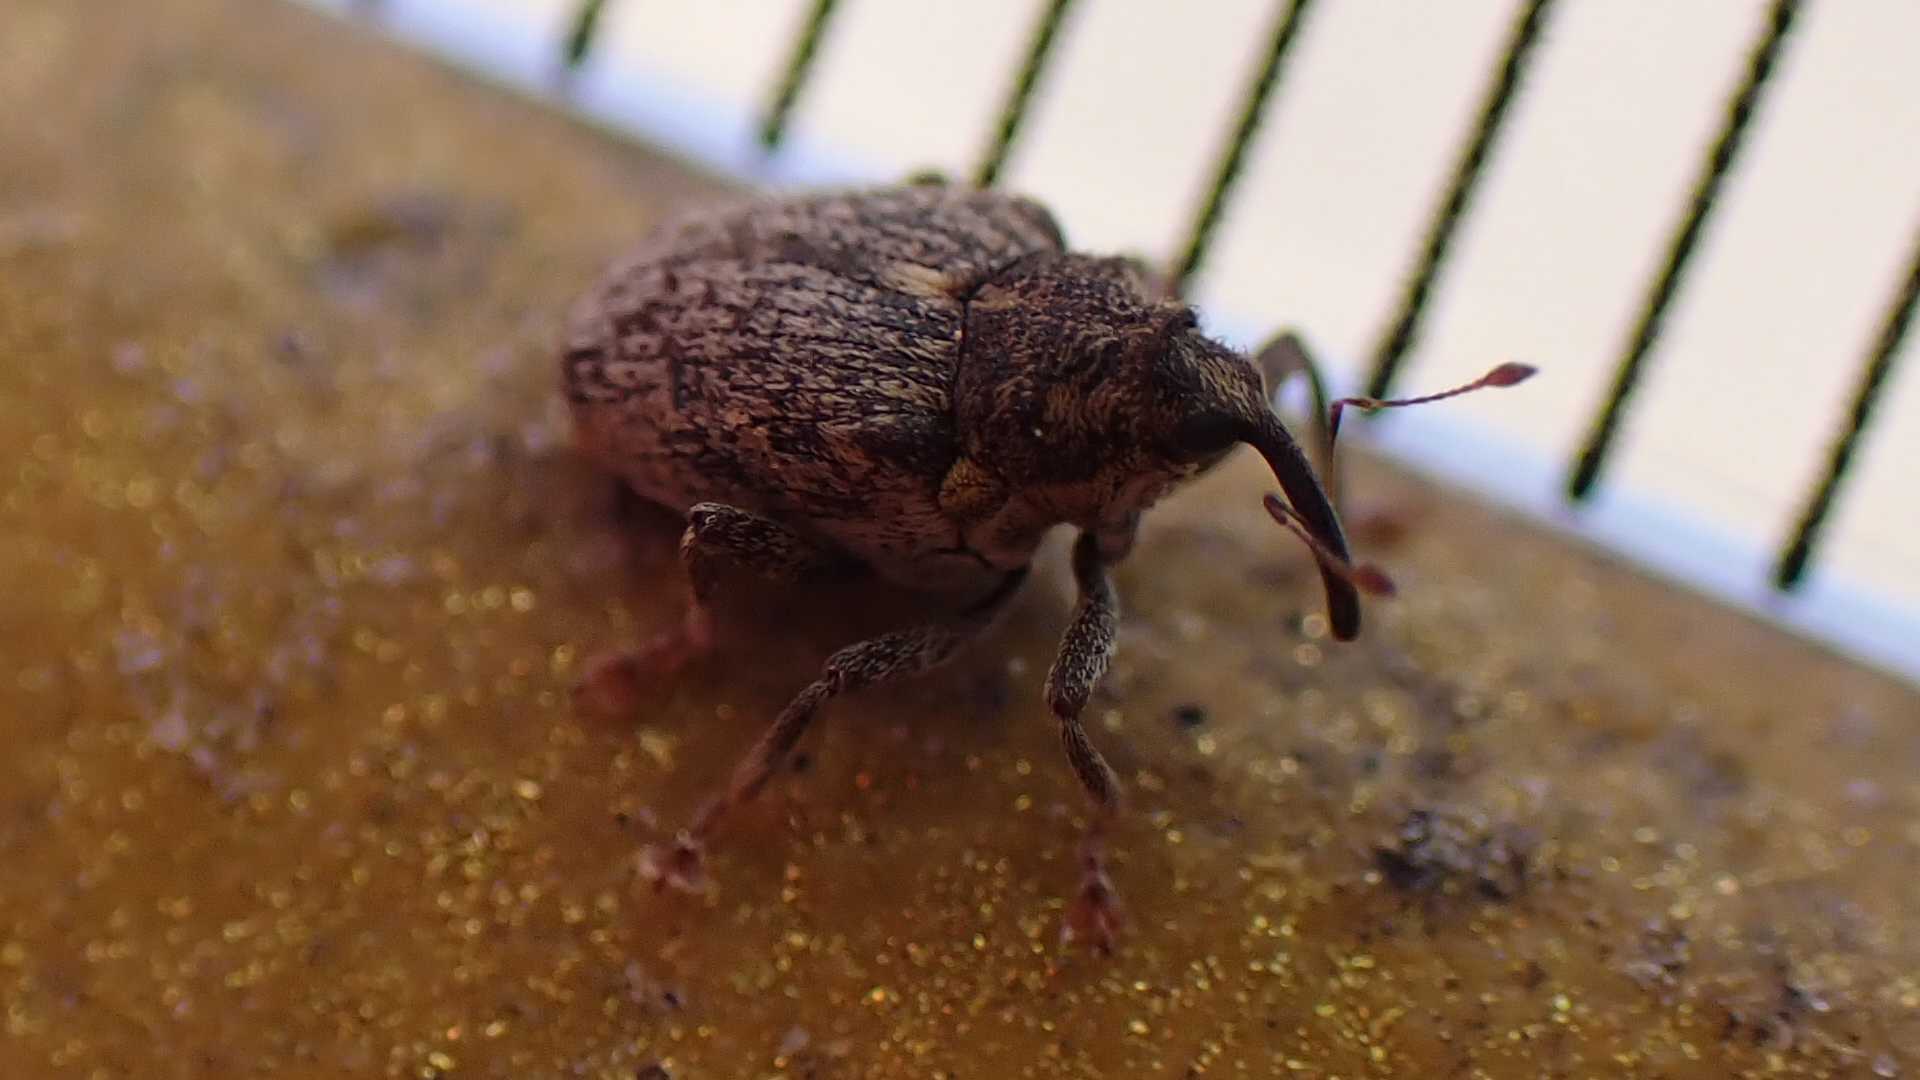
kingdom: Animalia
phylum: Arthropoda
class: Insecta
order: Coleoptera
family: Curculionidae
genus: Ceutorhynchus
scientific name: Ceutorhynchus pallidactylus
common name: Cabbage stem weavil
